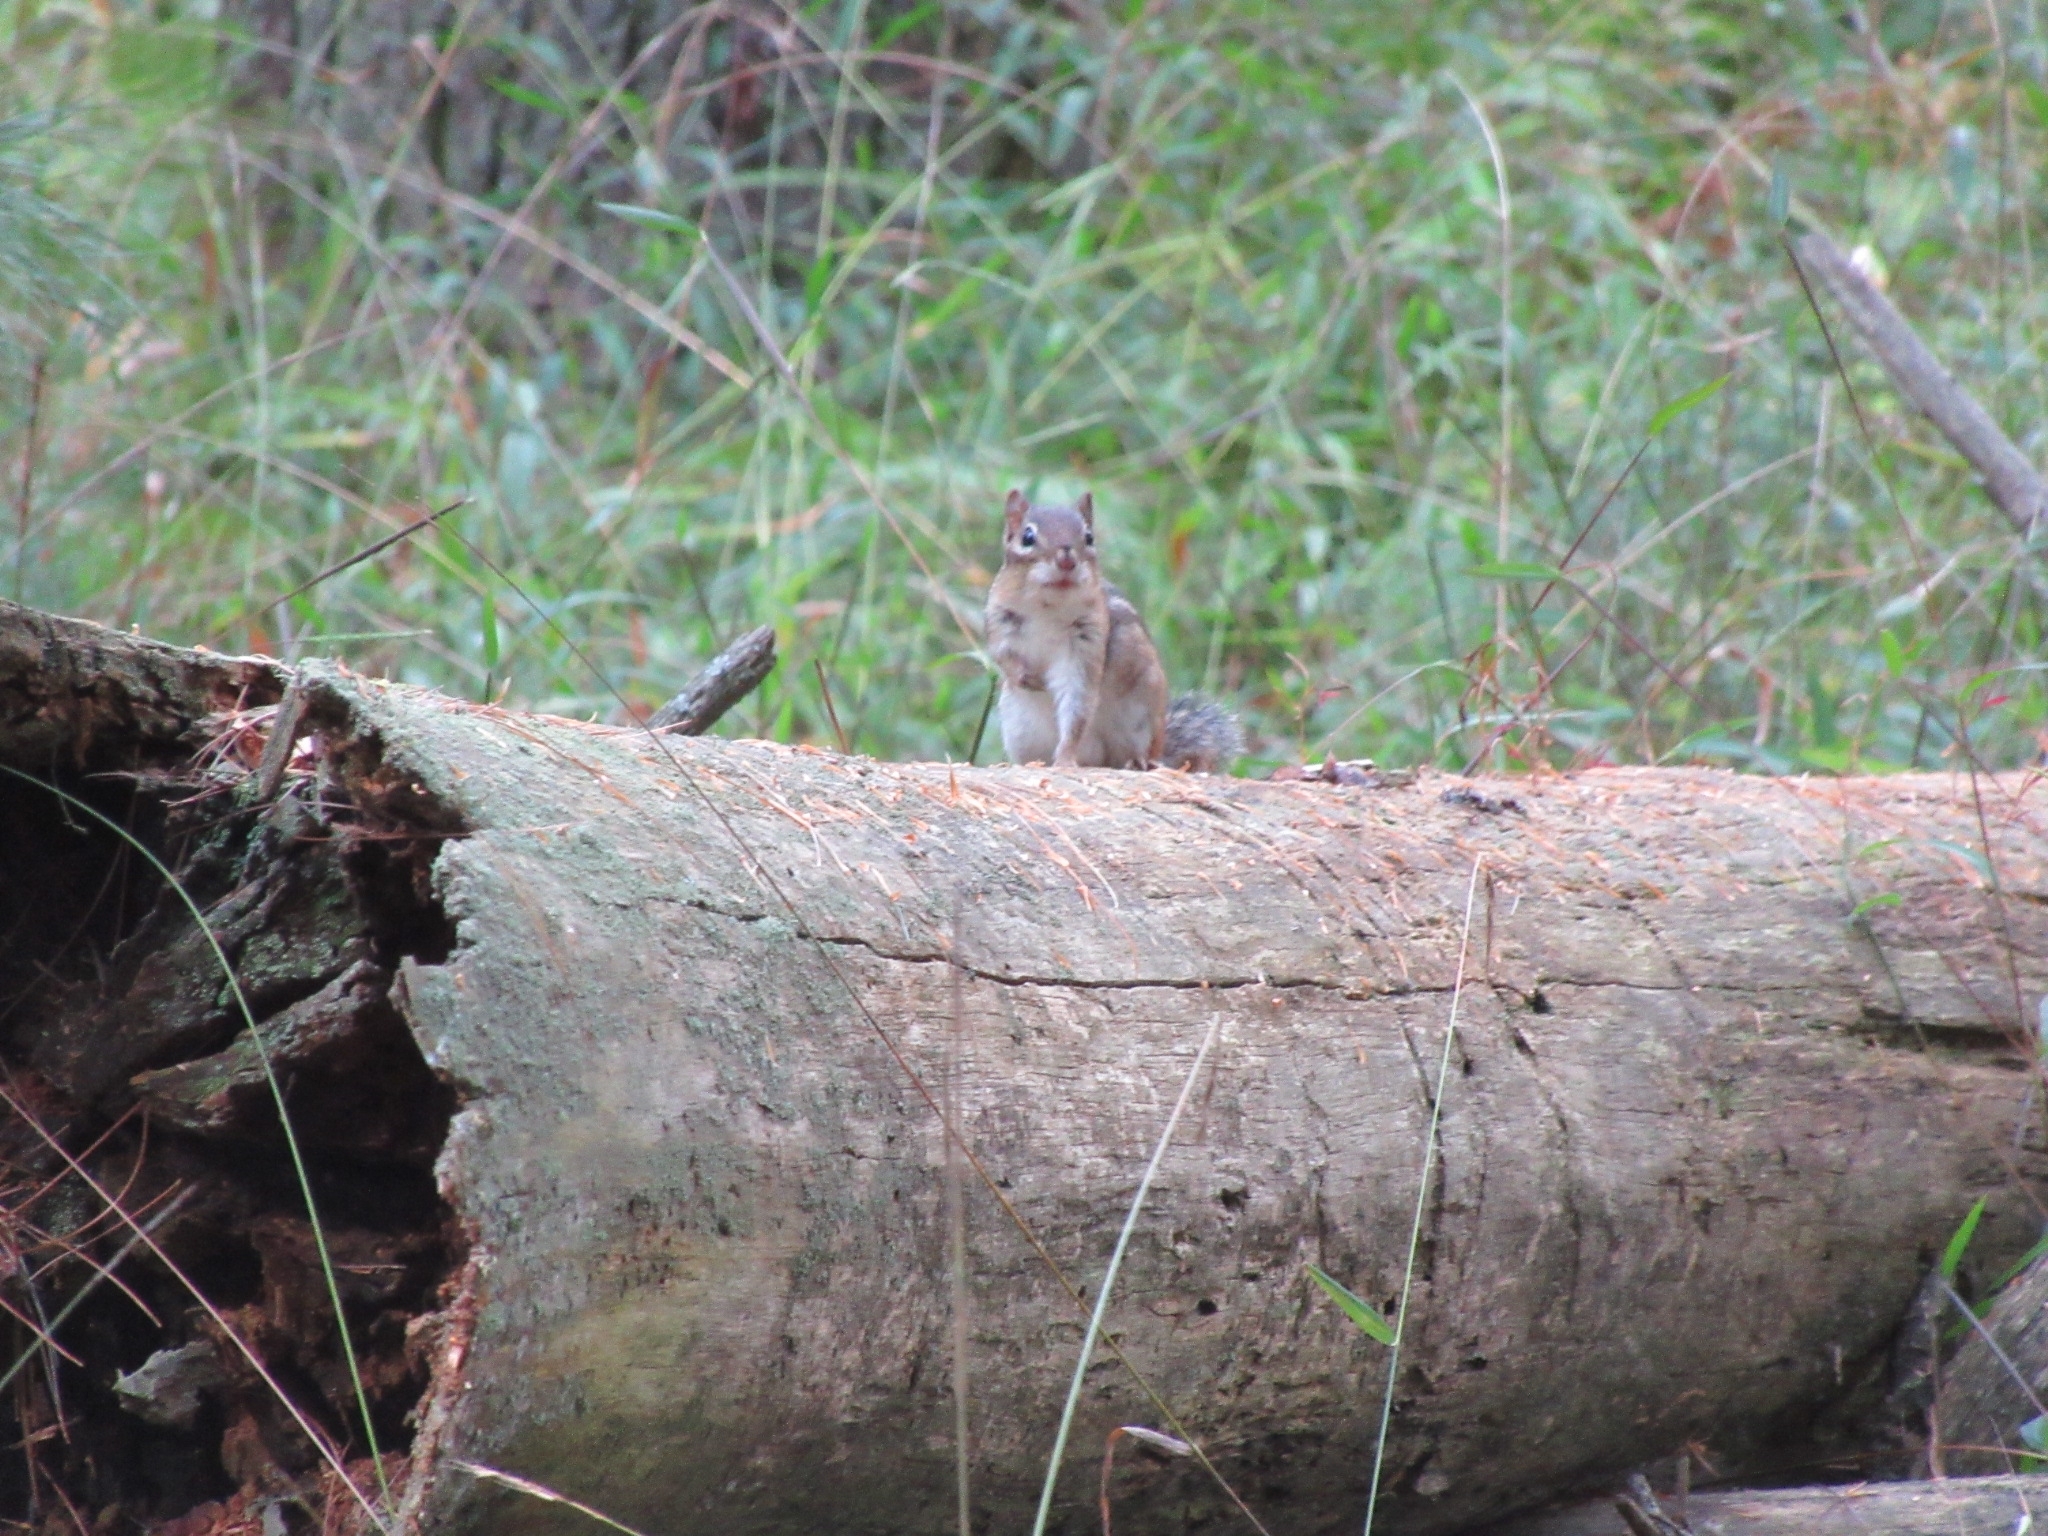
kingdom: Animalia
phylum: Chordata
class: Mammalia
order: Rodentia
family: Sciuridae
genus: Tamias
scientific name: Tamias striatus
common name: Eastern chipmunk
